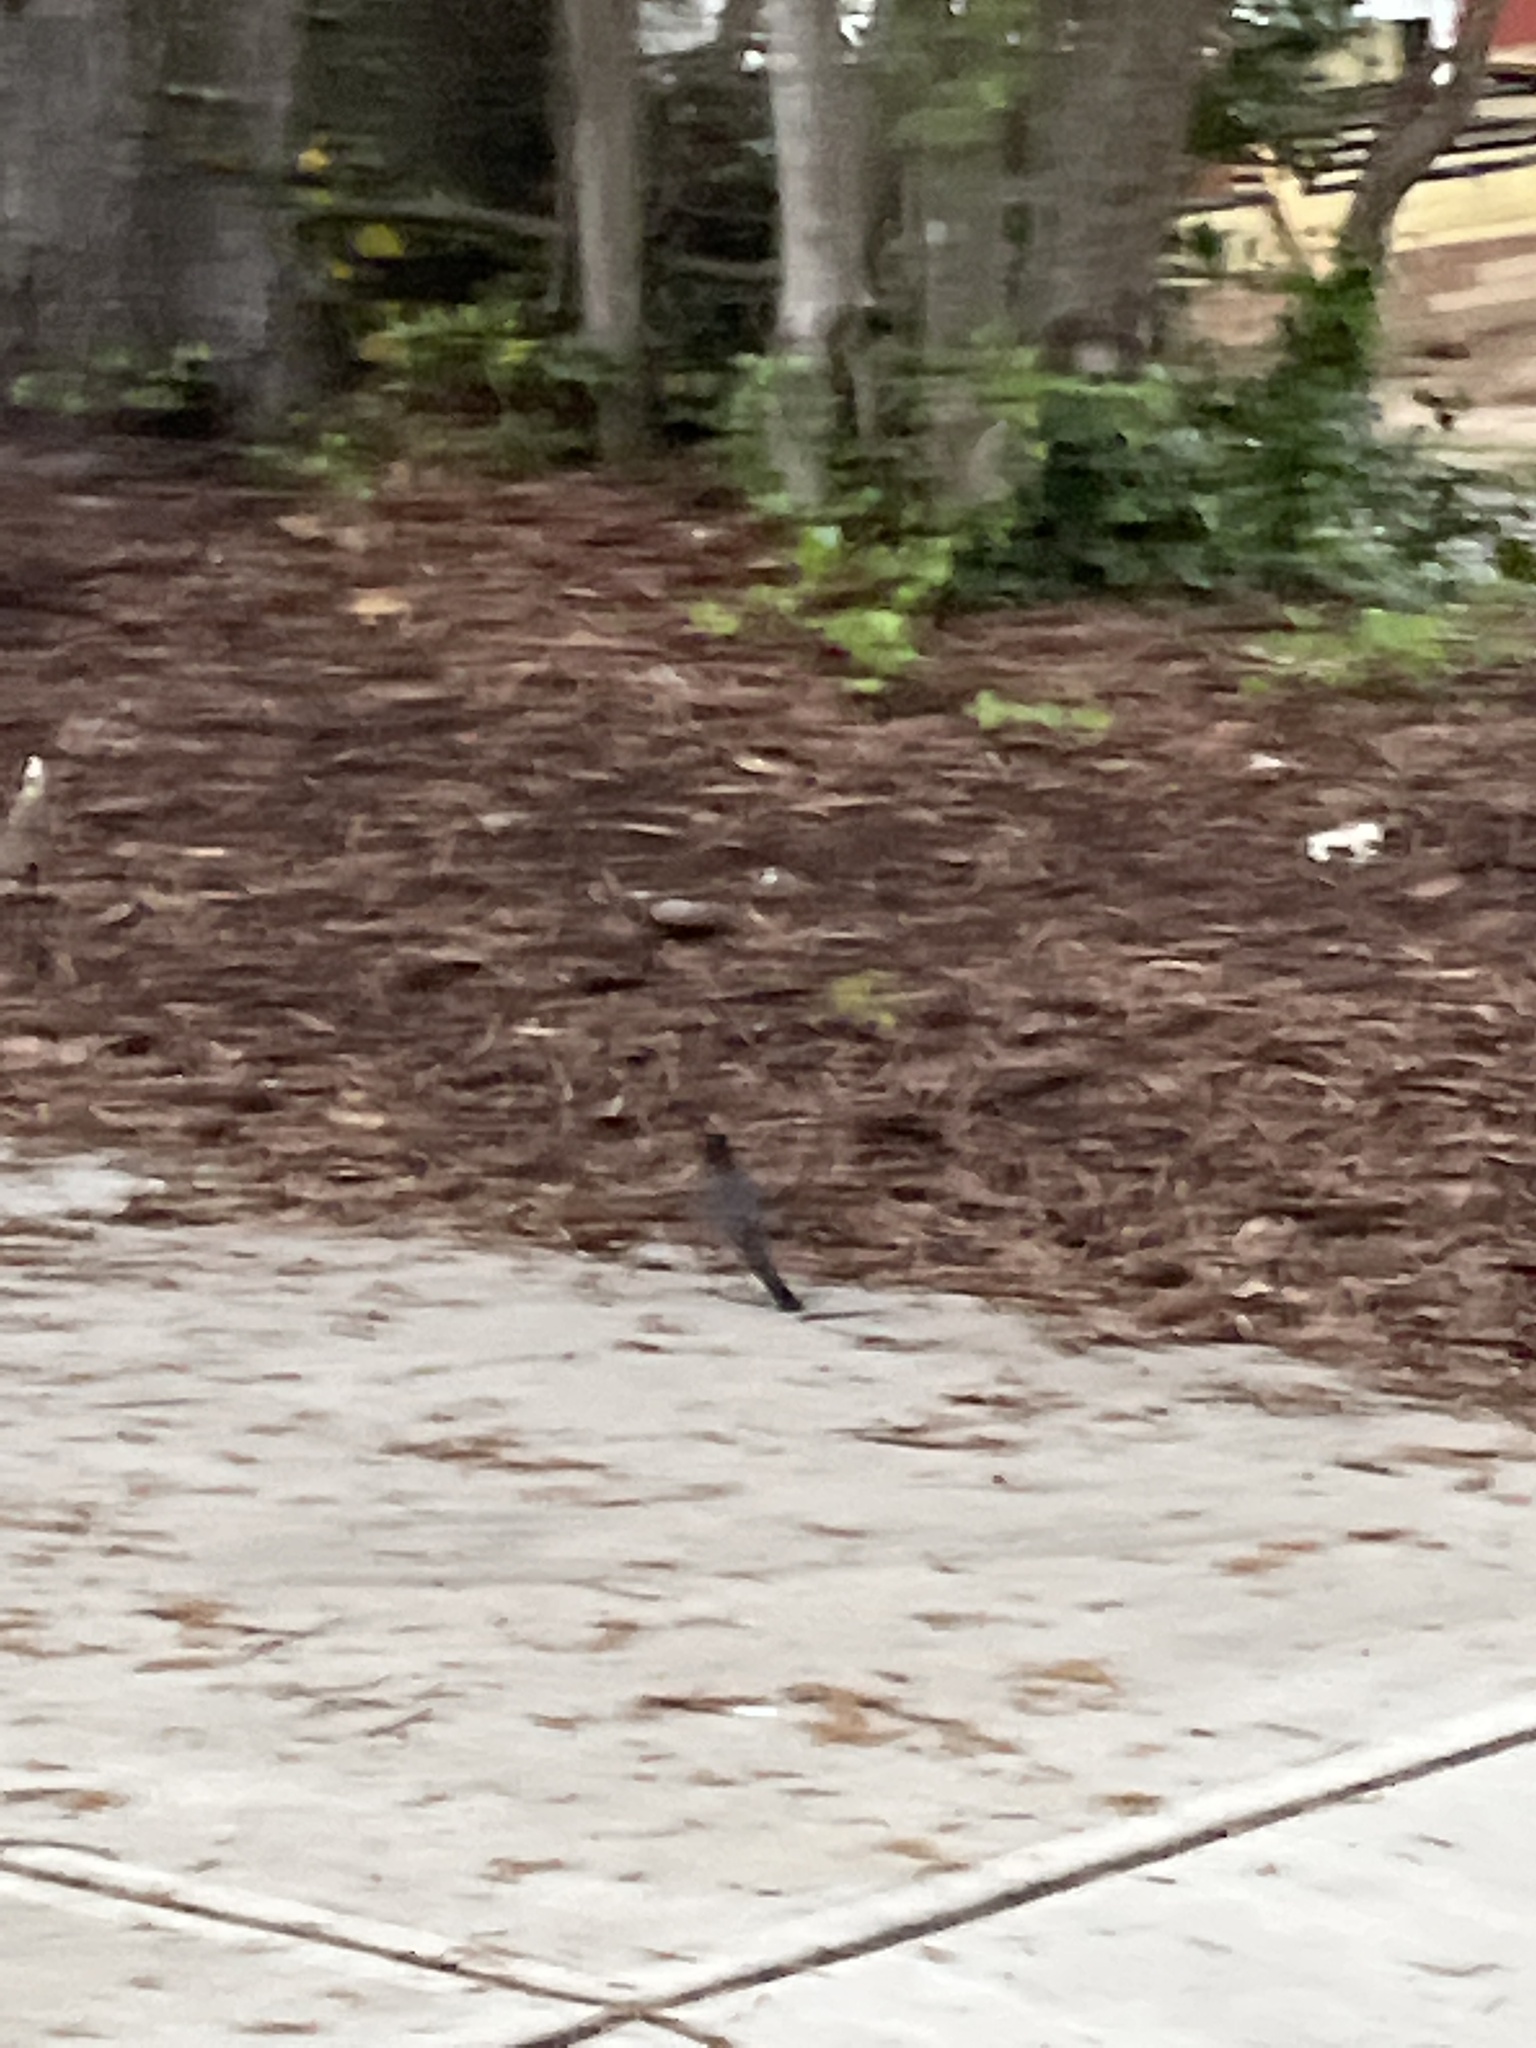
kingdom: Animalia
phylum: Chordata
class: Aves
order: Passeriformes
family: Turdidae
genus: Turdus
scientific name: Turdus migratorius
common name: American robin
